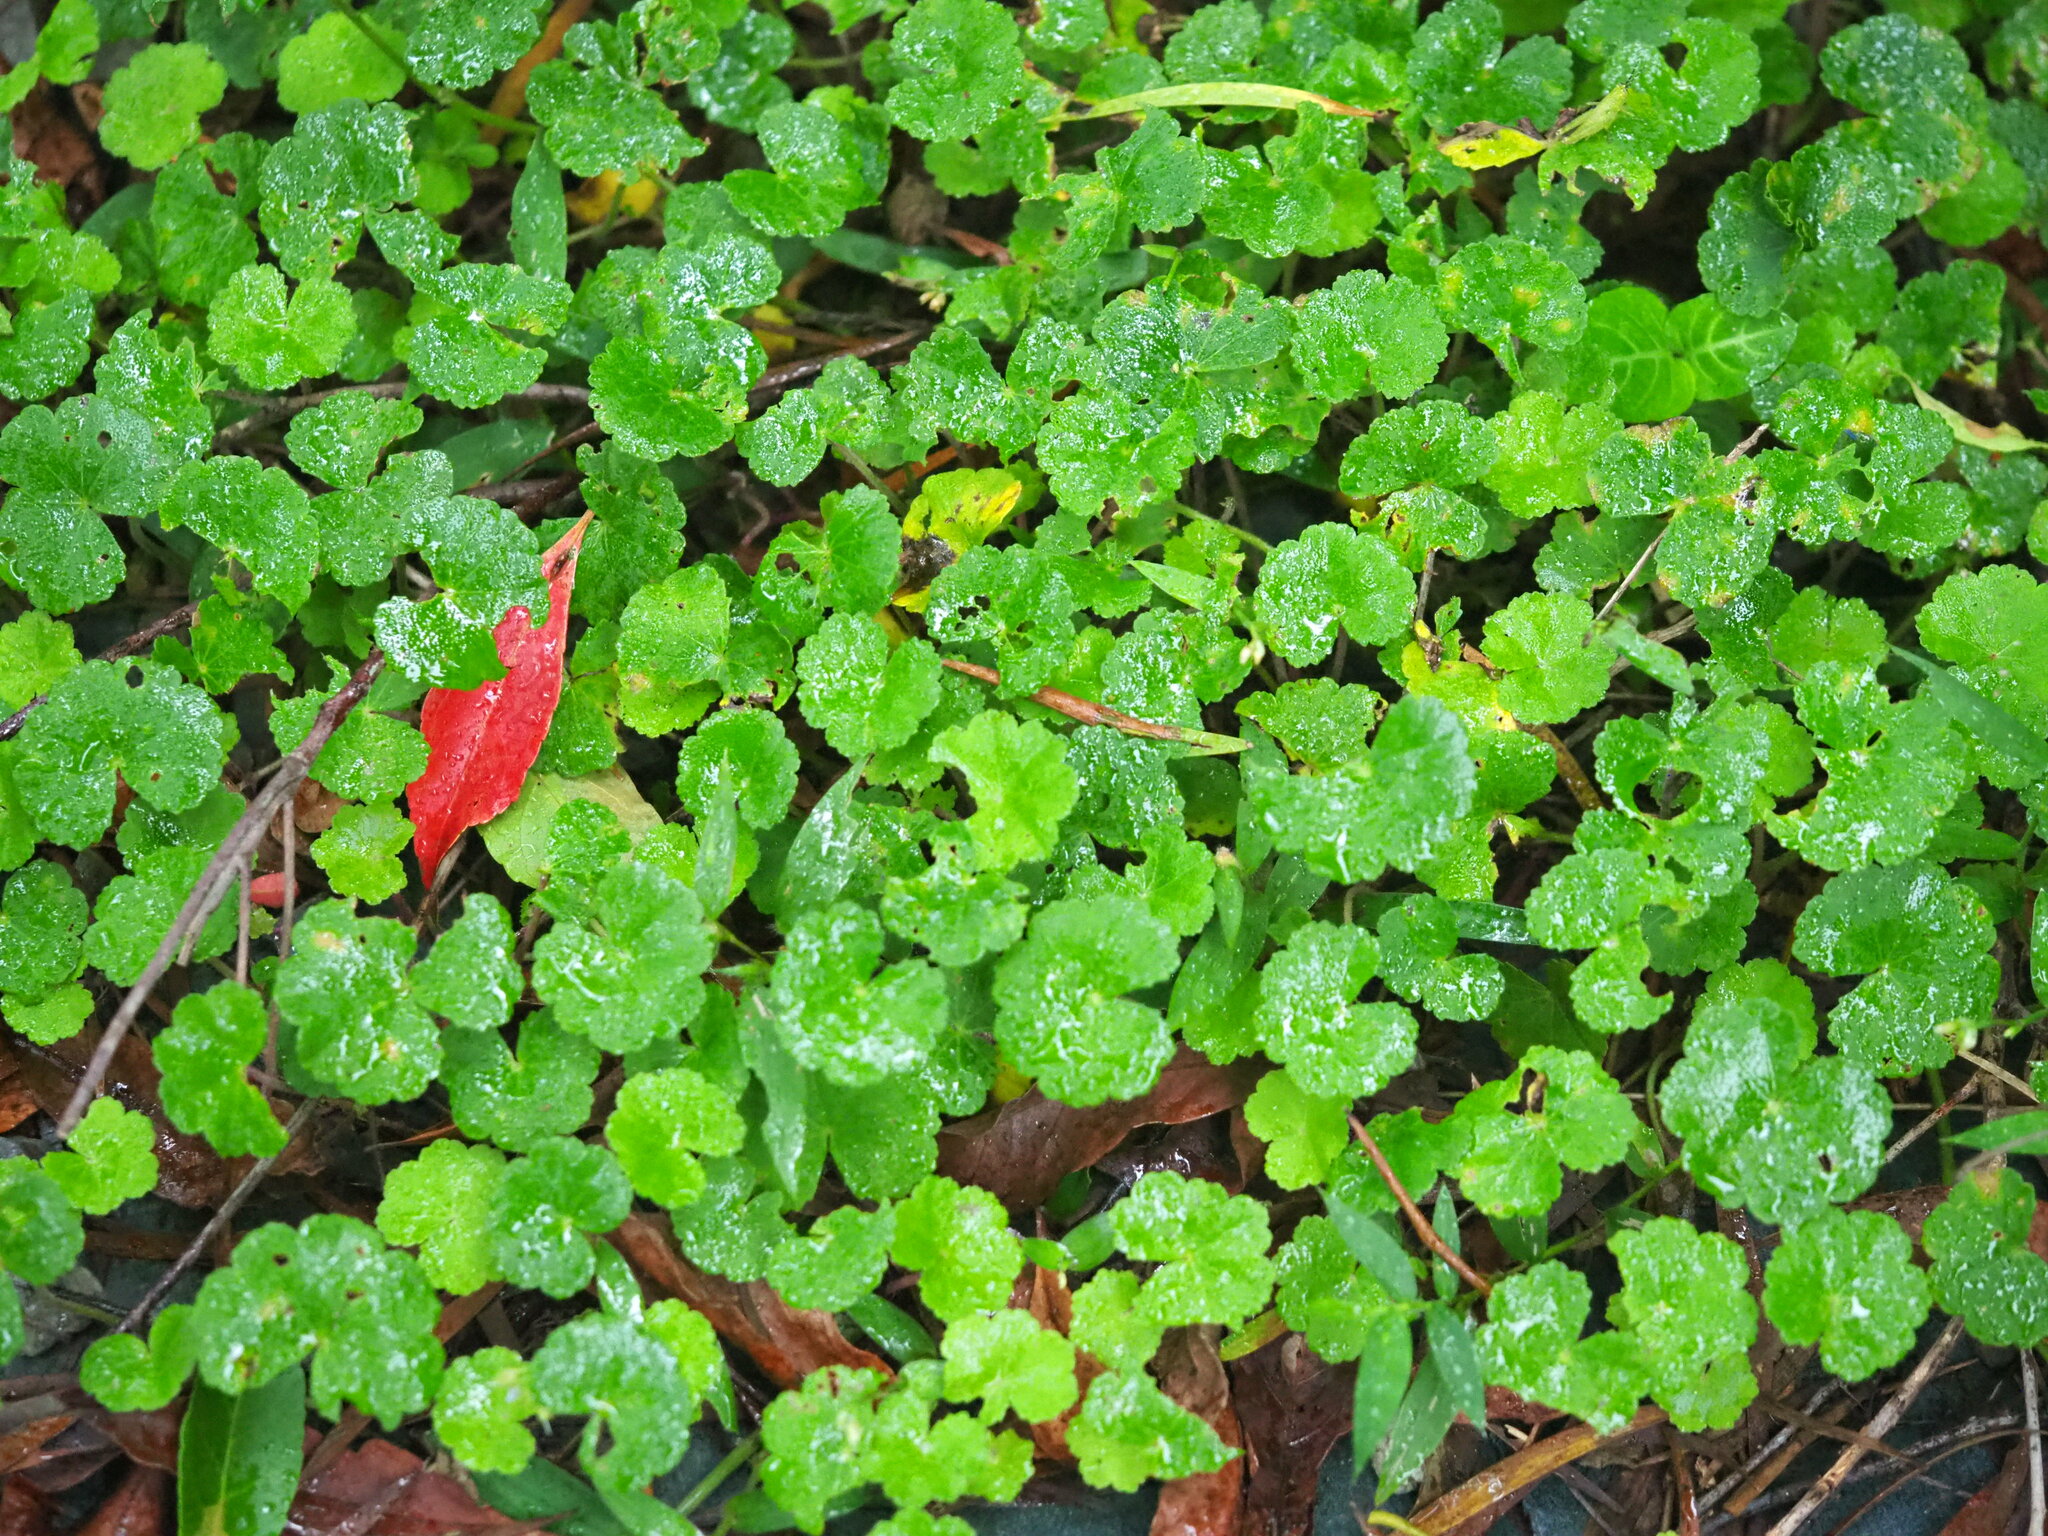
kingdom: Plantae
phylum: Tracheophyta
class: Magnoliopsida
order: Apiales
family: Araliaceae
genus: Hydrocotyle
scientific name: Hydrocotyle nepalensis
